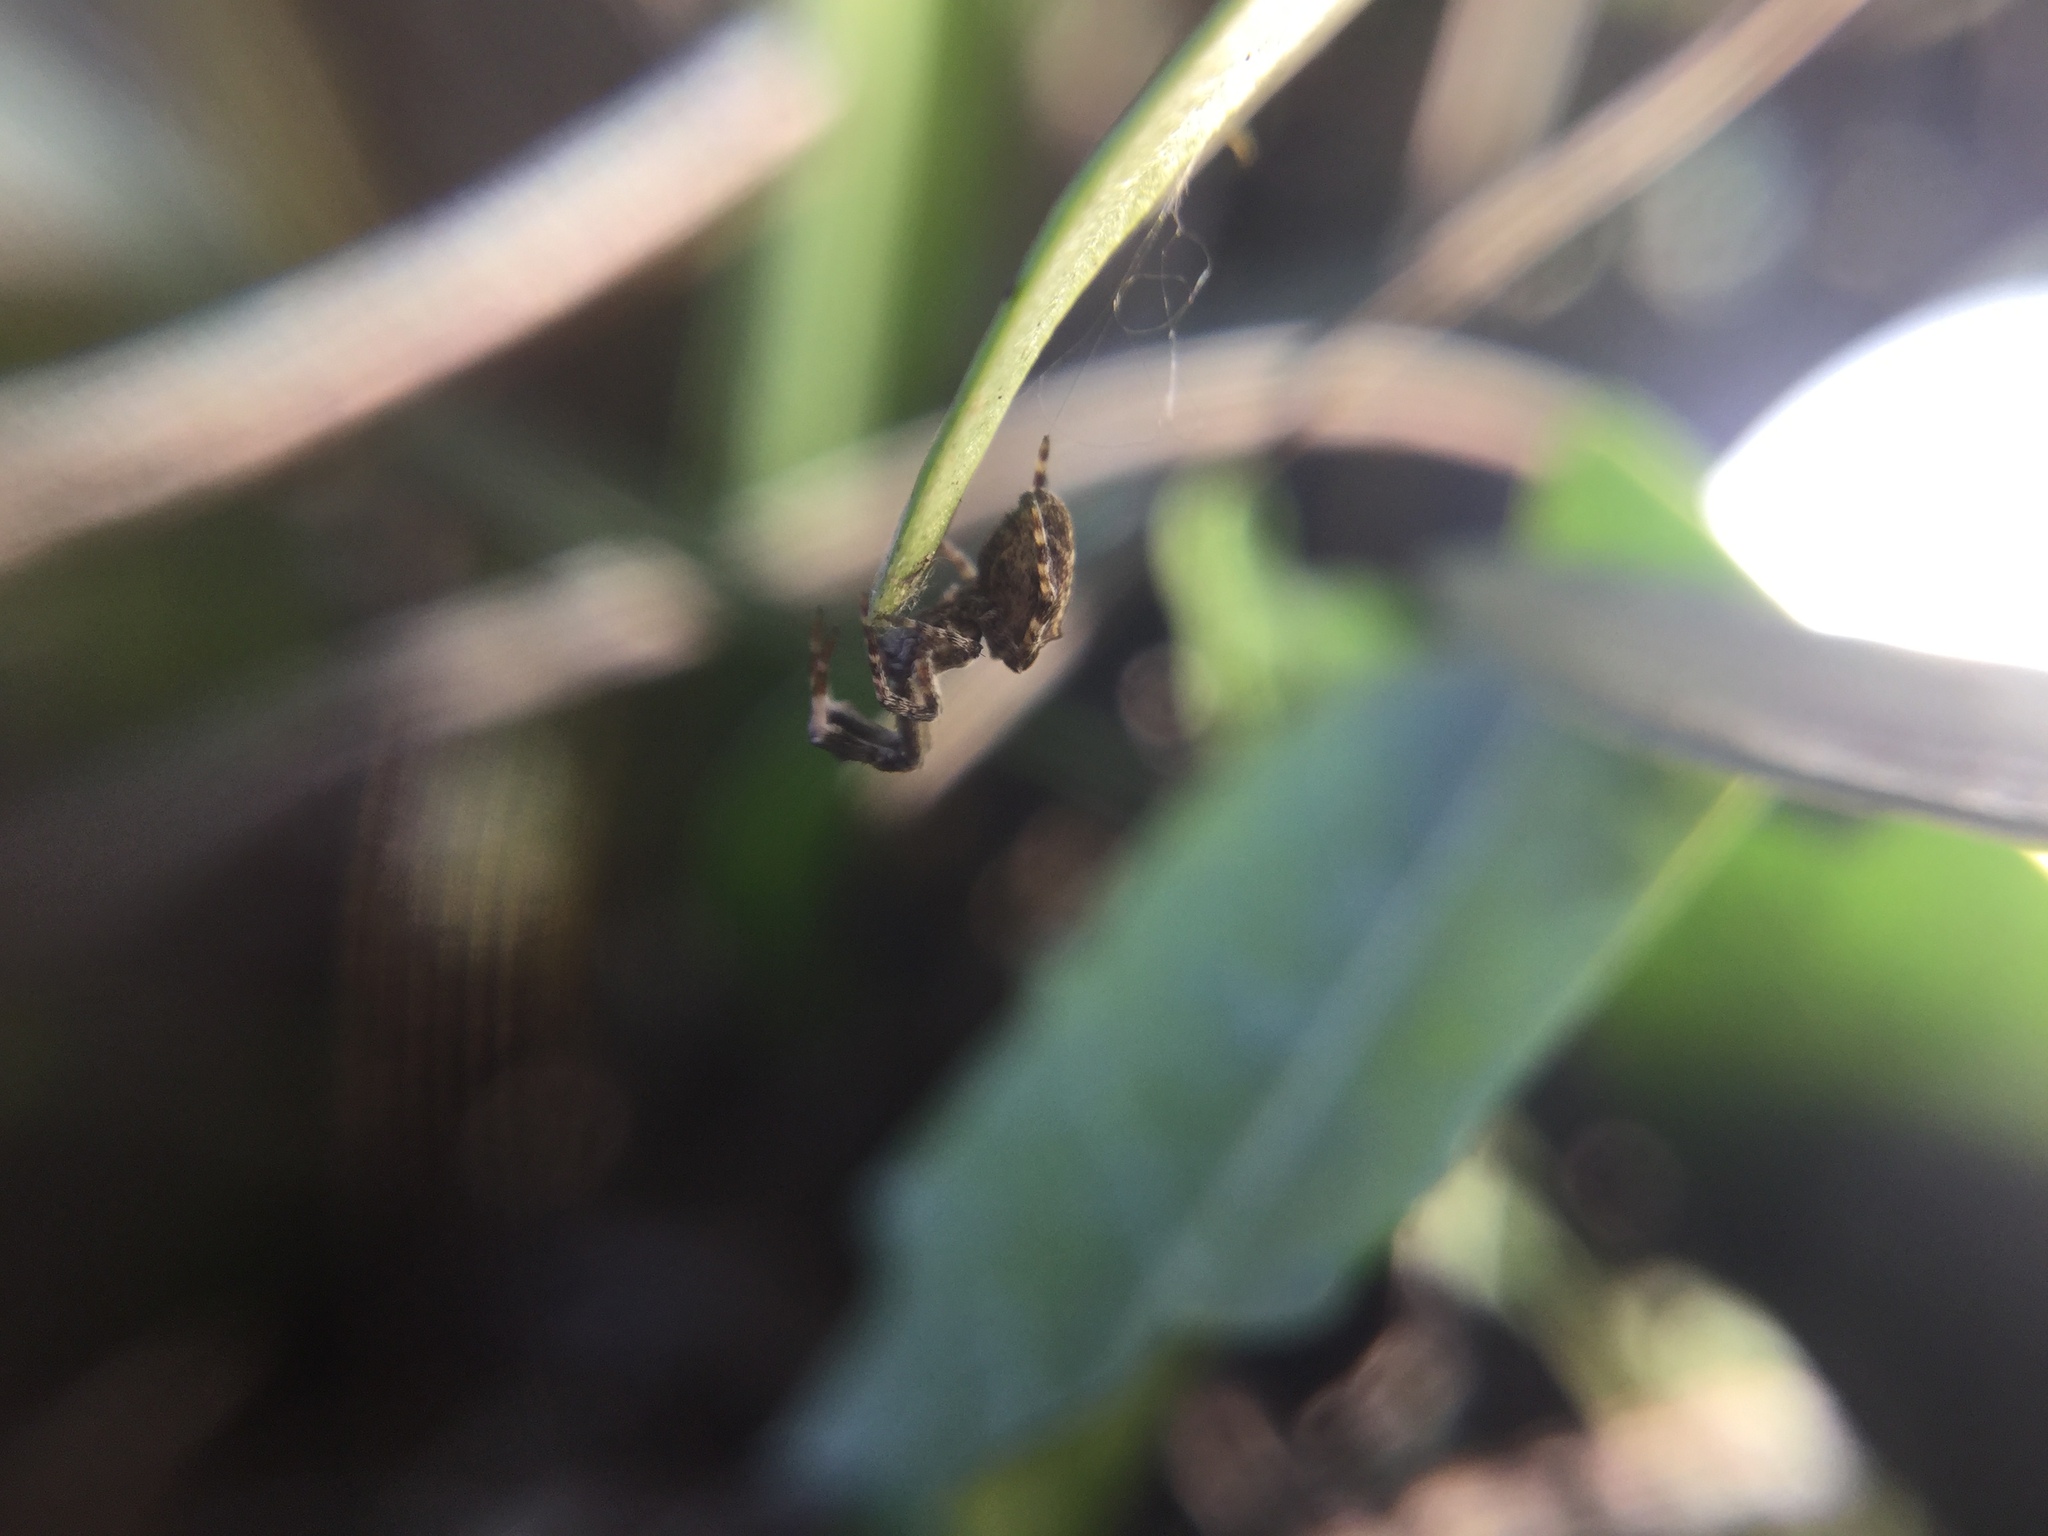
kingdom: Animalia
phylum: Arthropoda
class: Arachnida
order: Araneae
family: Uloboridae
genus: Uloborus
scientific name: Uloborus glomosus
